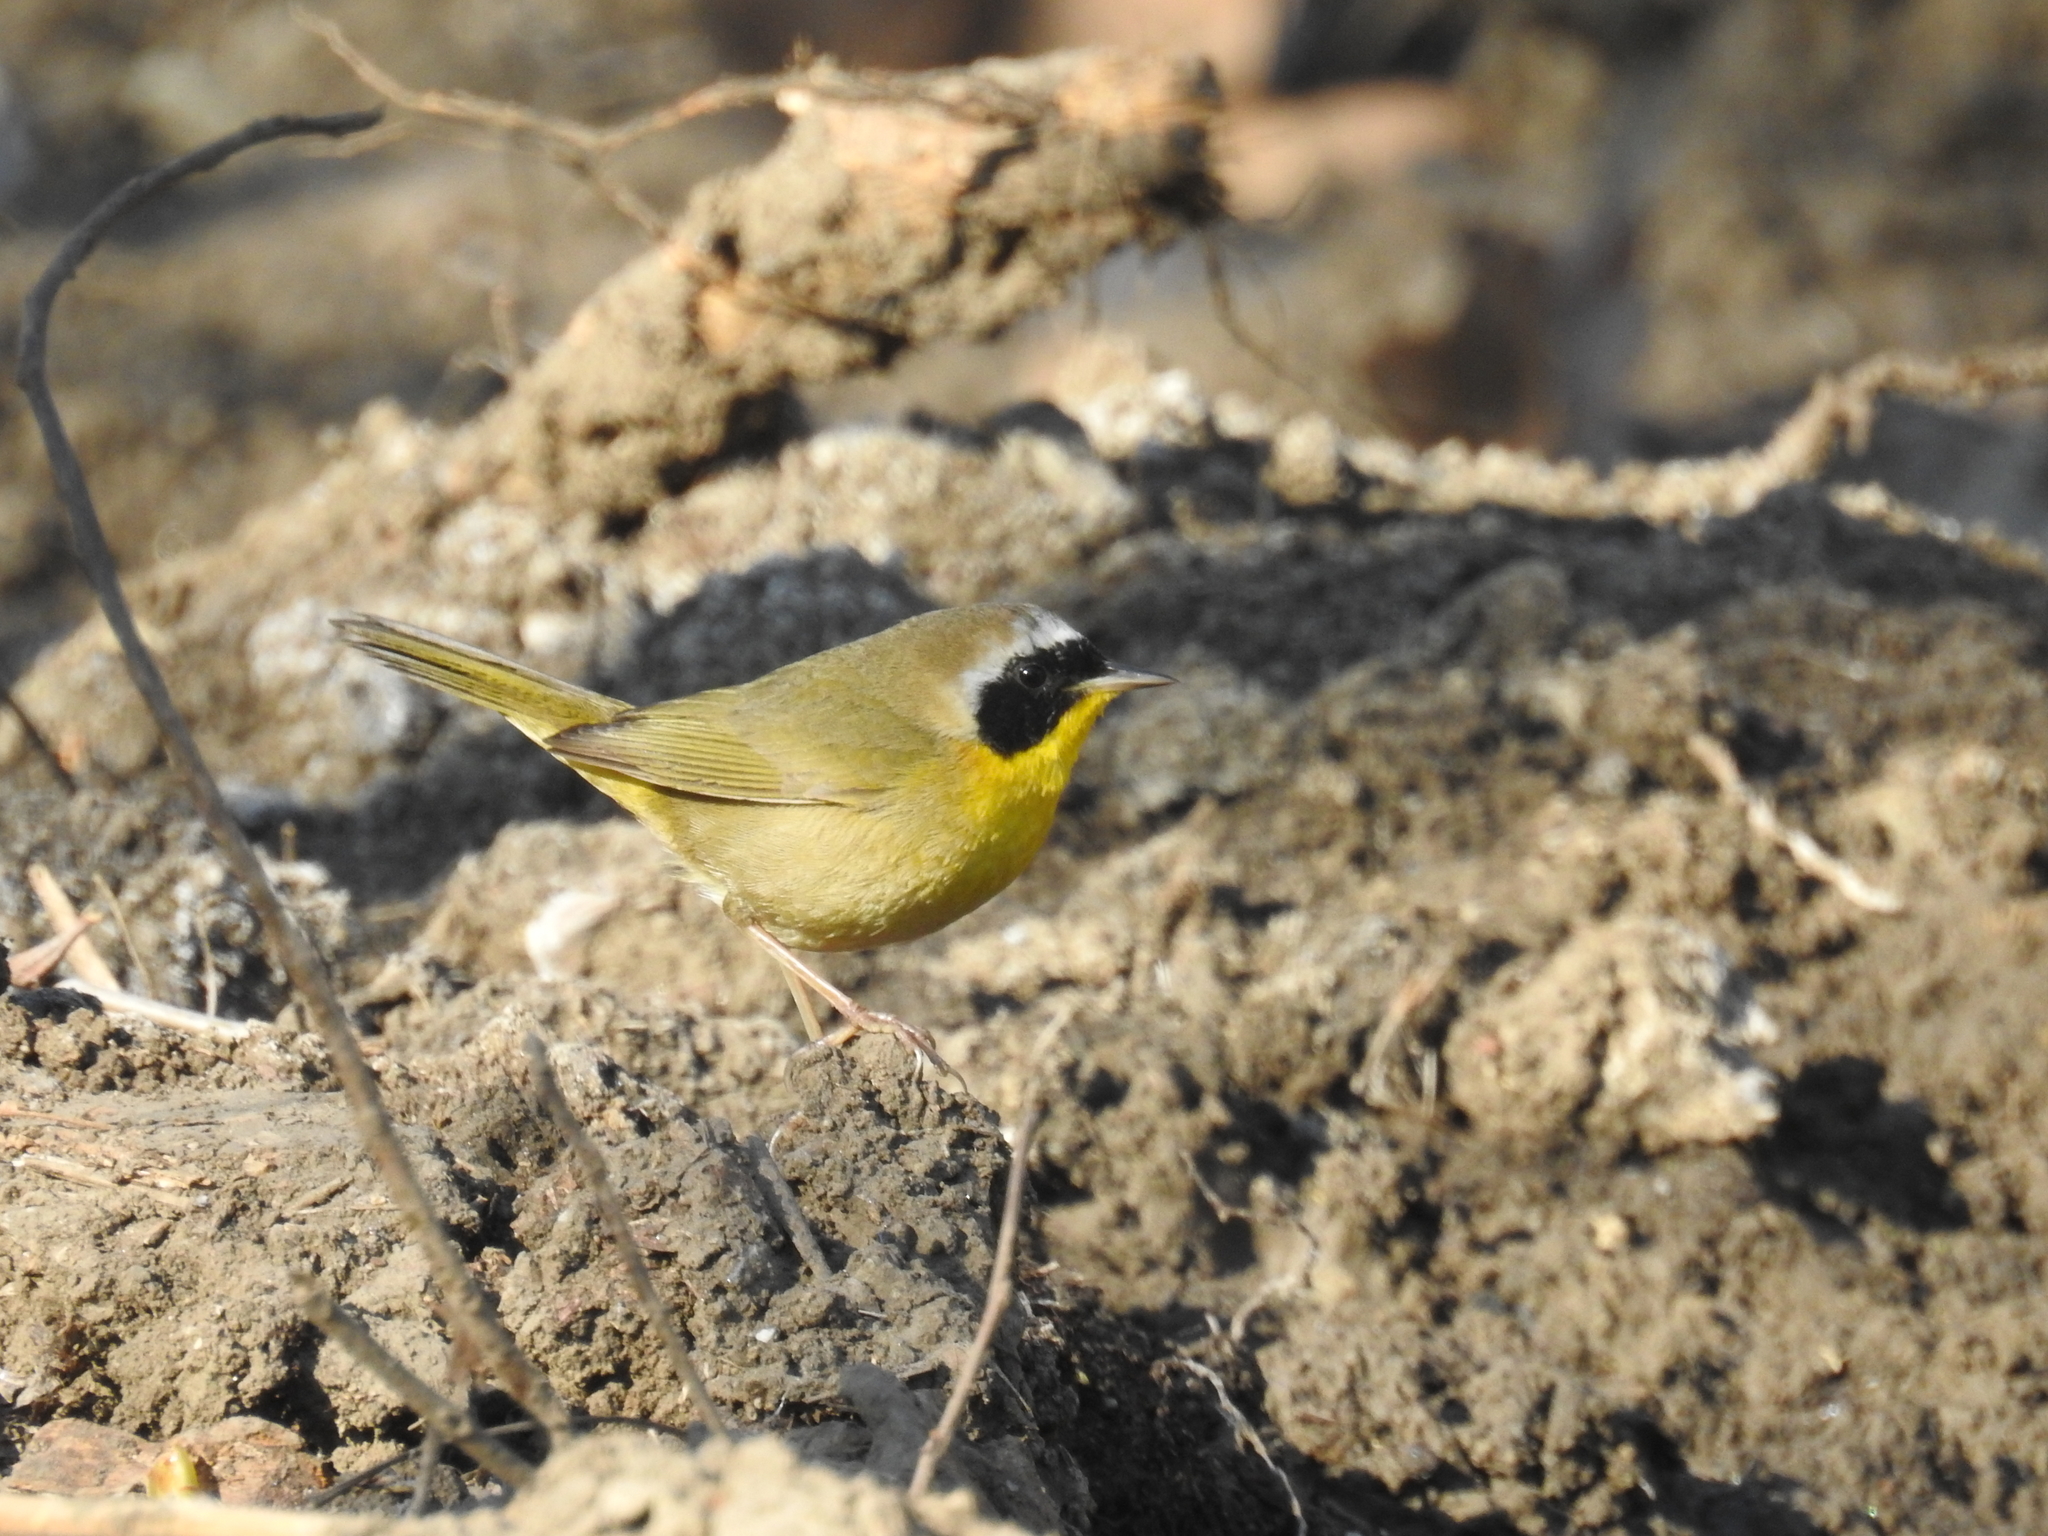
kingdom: Animalia
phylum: Chordata
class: Aves
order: Passeriformes
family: Parulidae
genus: Geothlypis
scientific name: Geothlypis trichas
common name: Common yellowthroat
